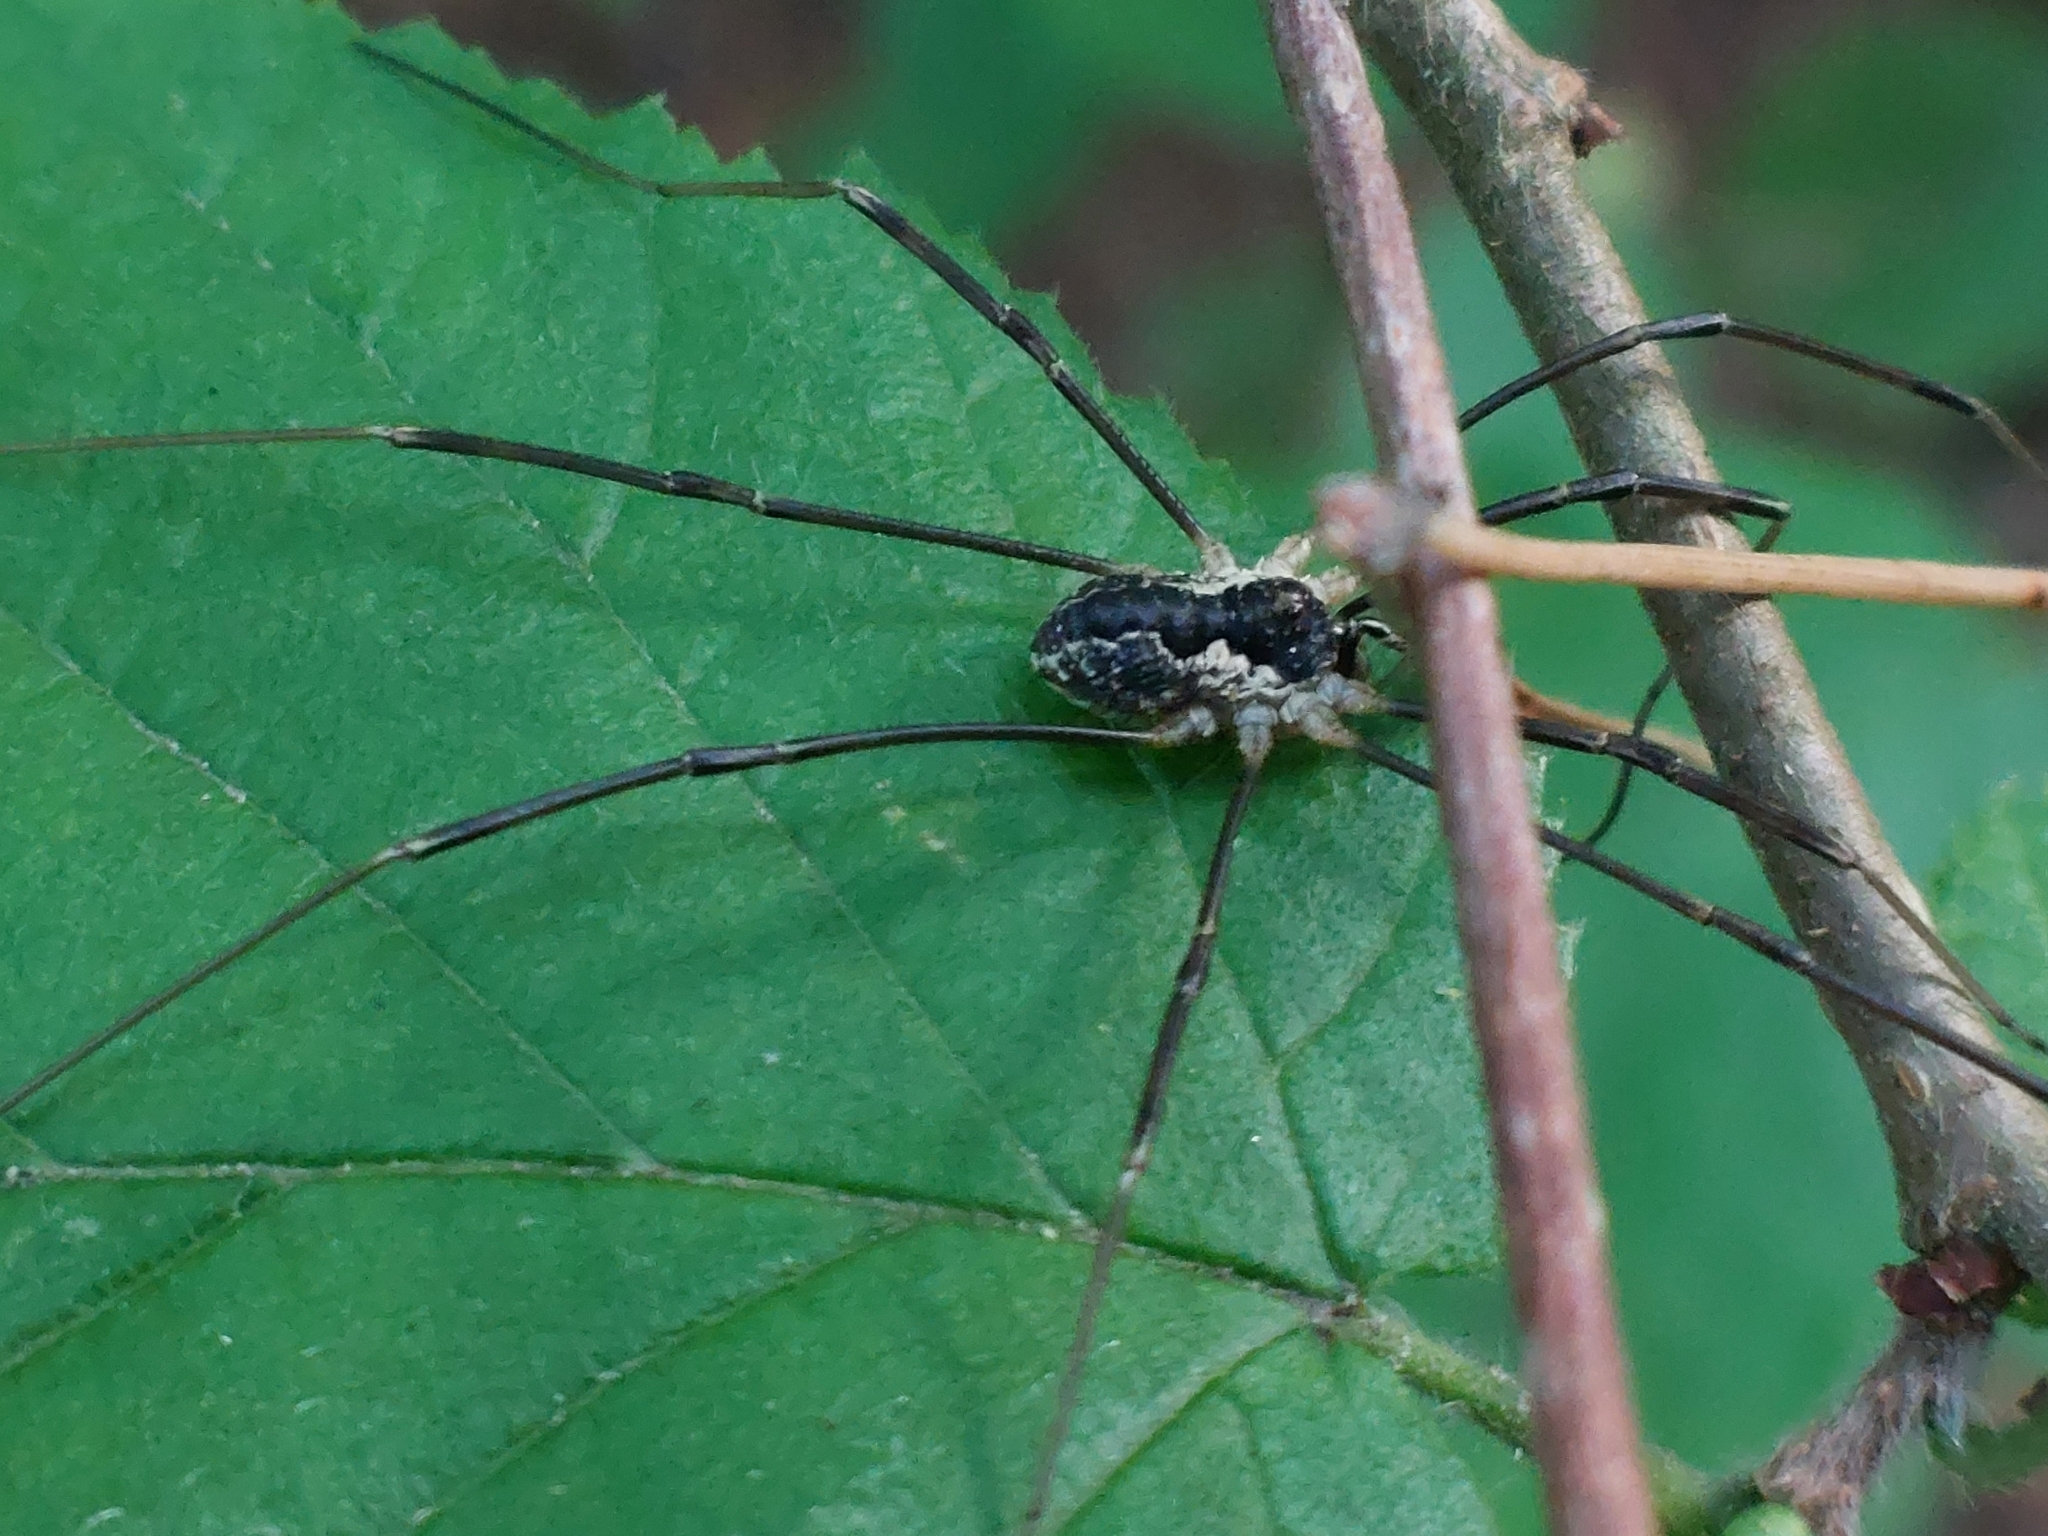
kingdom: Animalia
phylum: Arthropoda
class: Arachnida
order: Opiliones
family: Phalangiidae
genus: Mitopus
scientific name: Mitopus morio
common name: Saddleback harvestman
